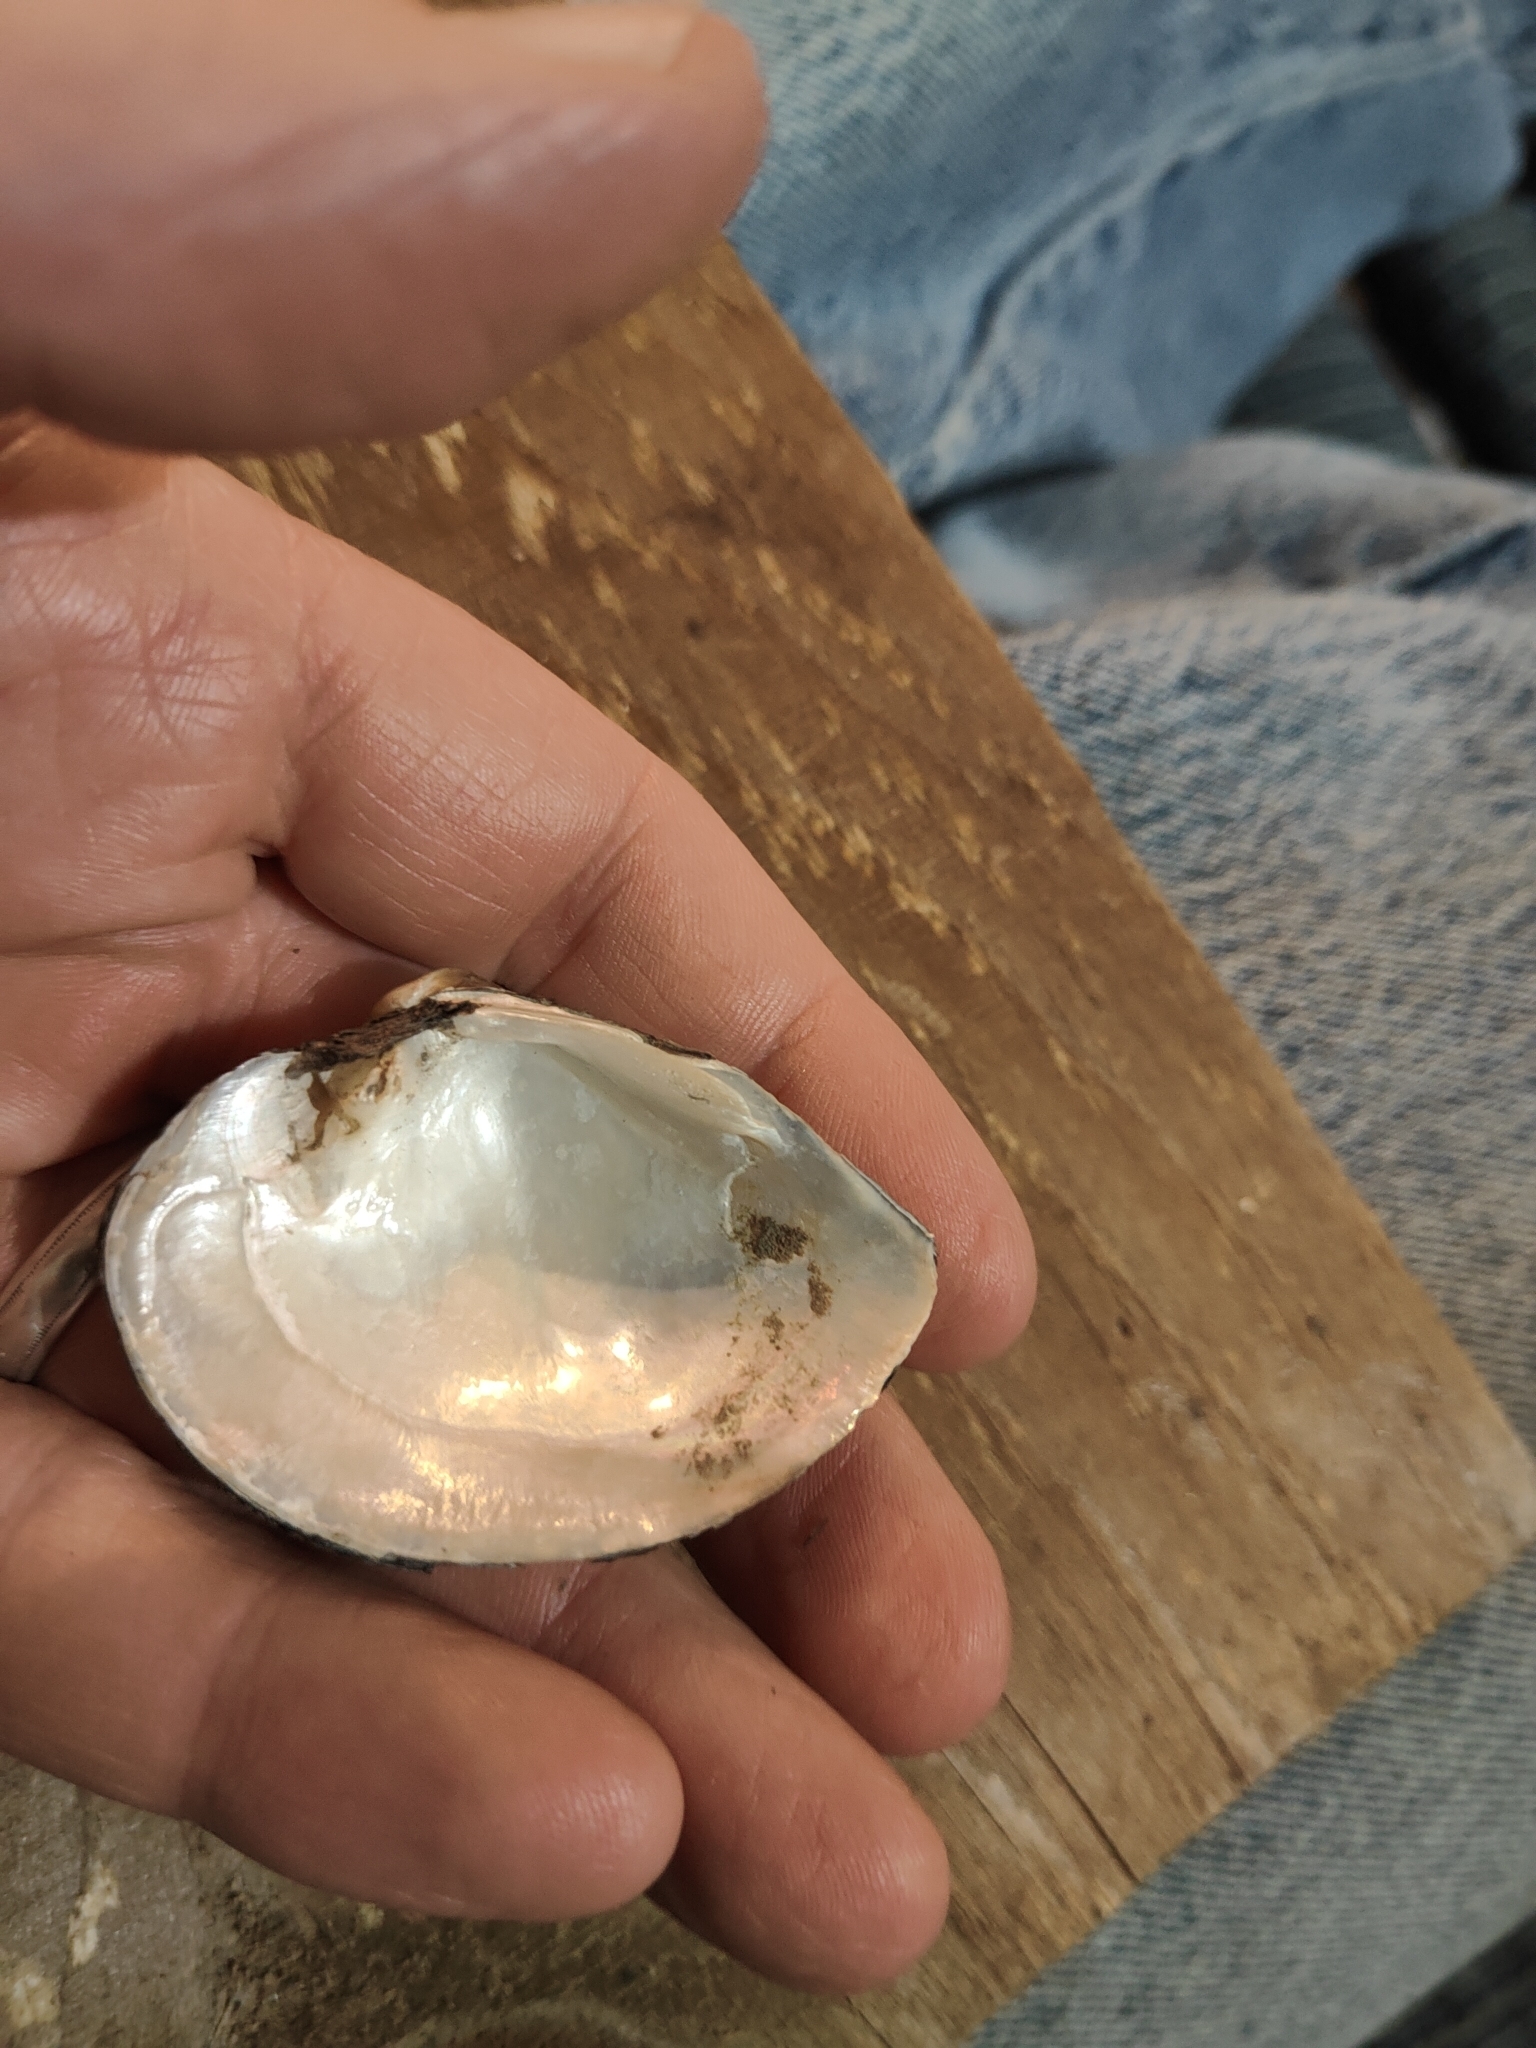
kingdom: Animalia
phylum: Mollusca
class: Bivalvia
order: Unionida
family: Unionidae
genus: Truncilla
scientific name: Truncilla truncata
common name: Deertoe
